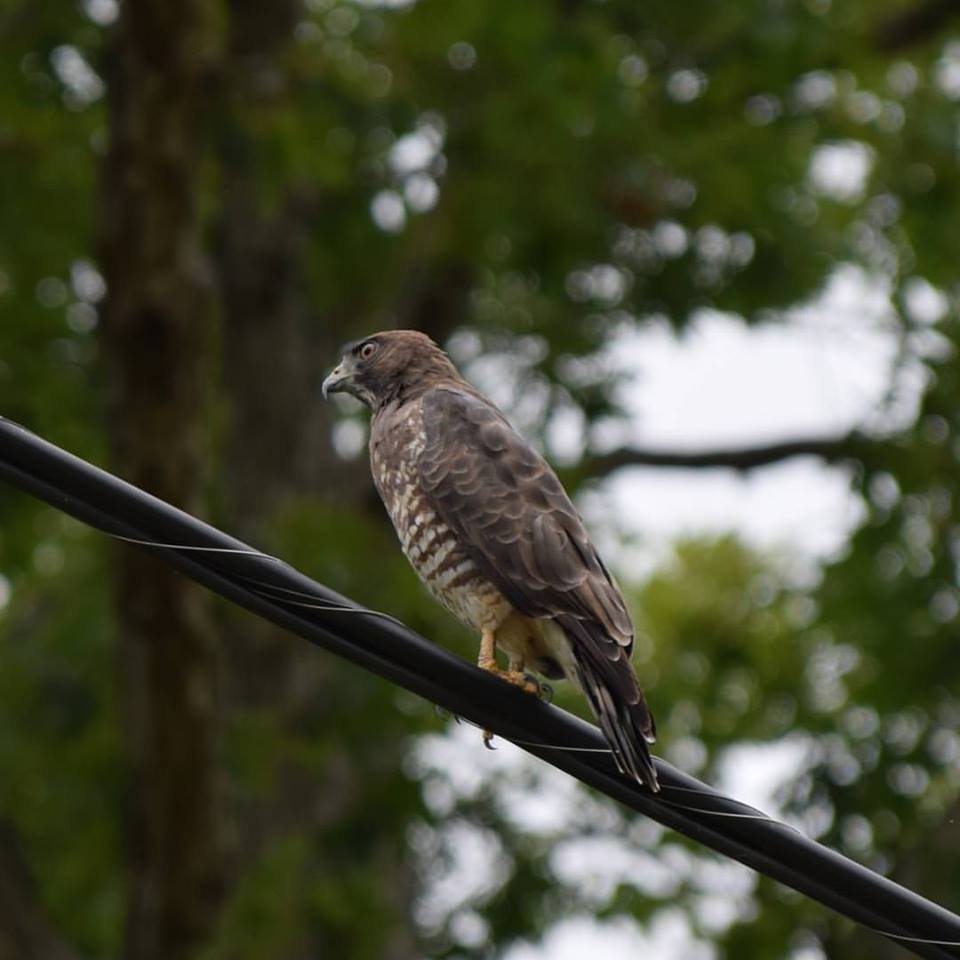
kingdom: Animalia
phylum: Chordata
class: Aves
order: Accipitriformes
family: Accipitridae
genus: Buteo
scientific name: Buteo platypterus
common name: Broad-winged hawk
